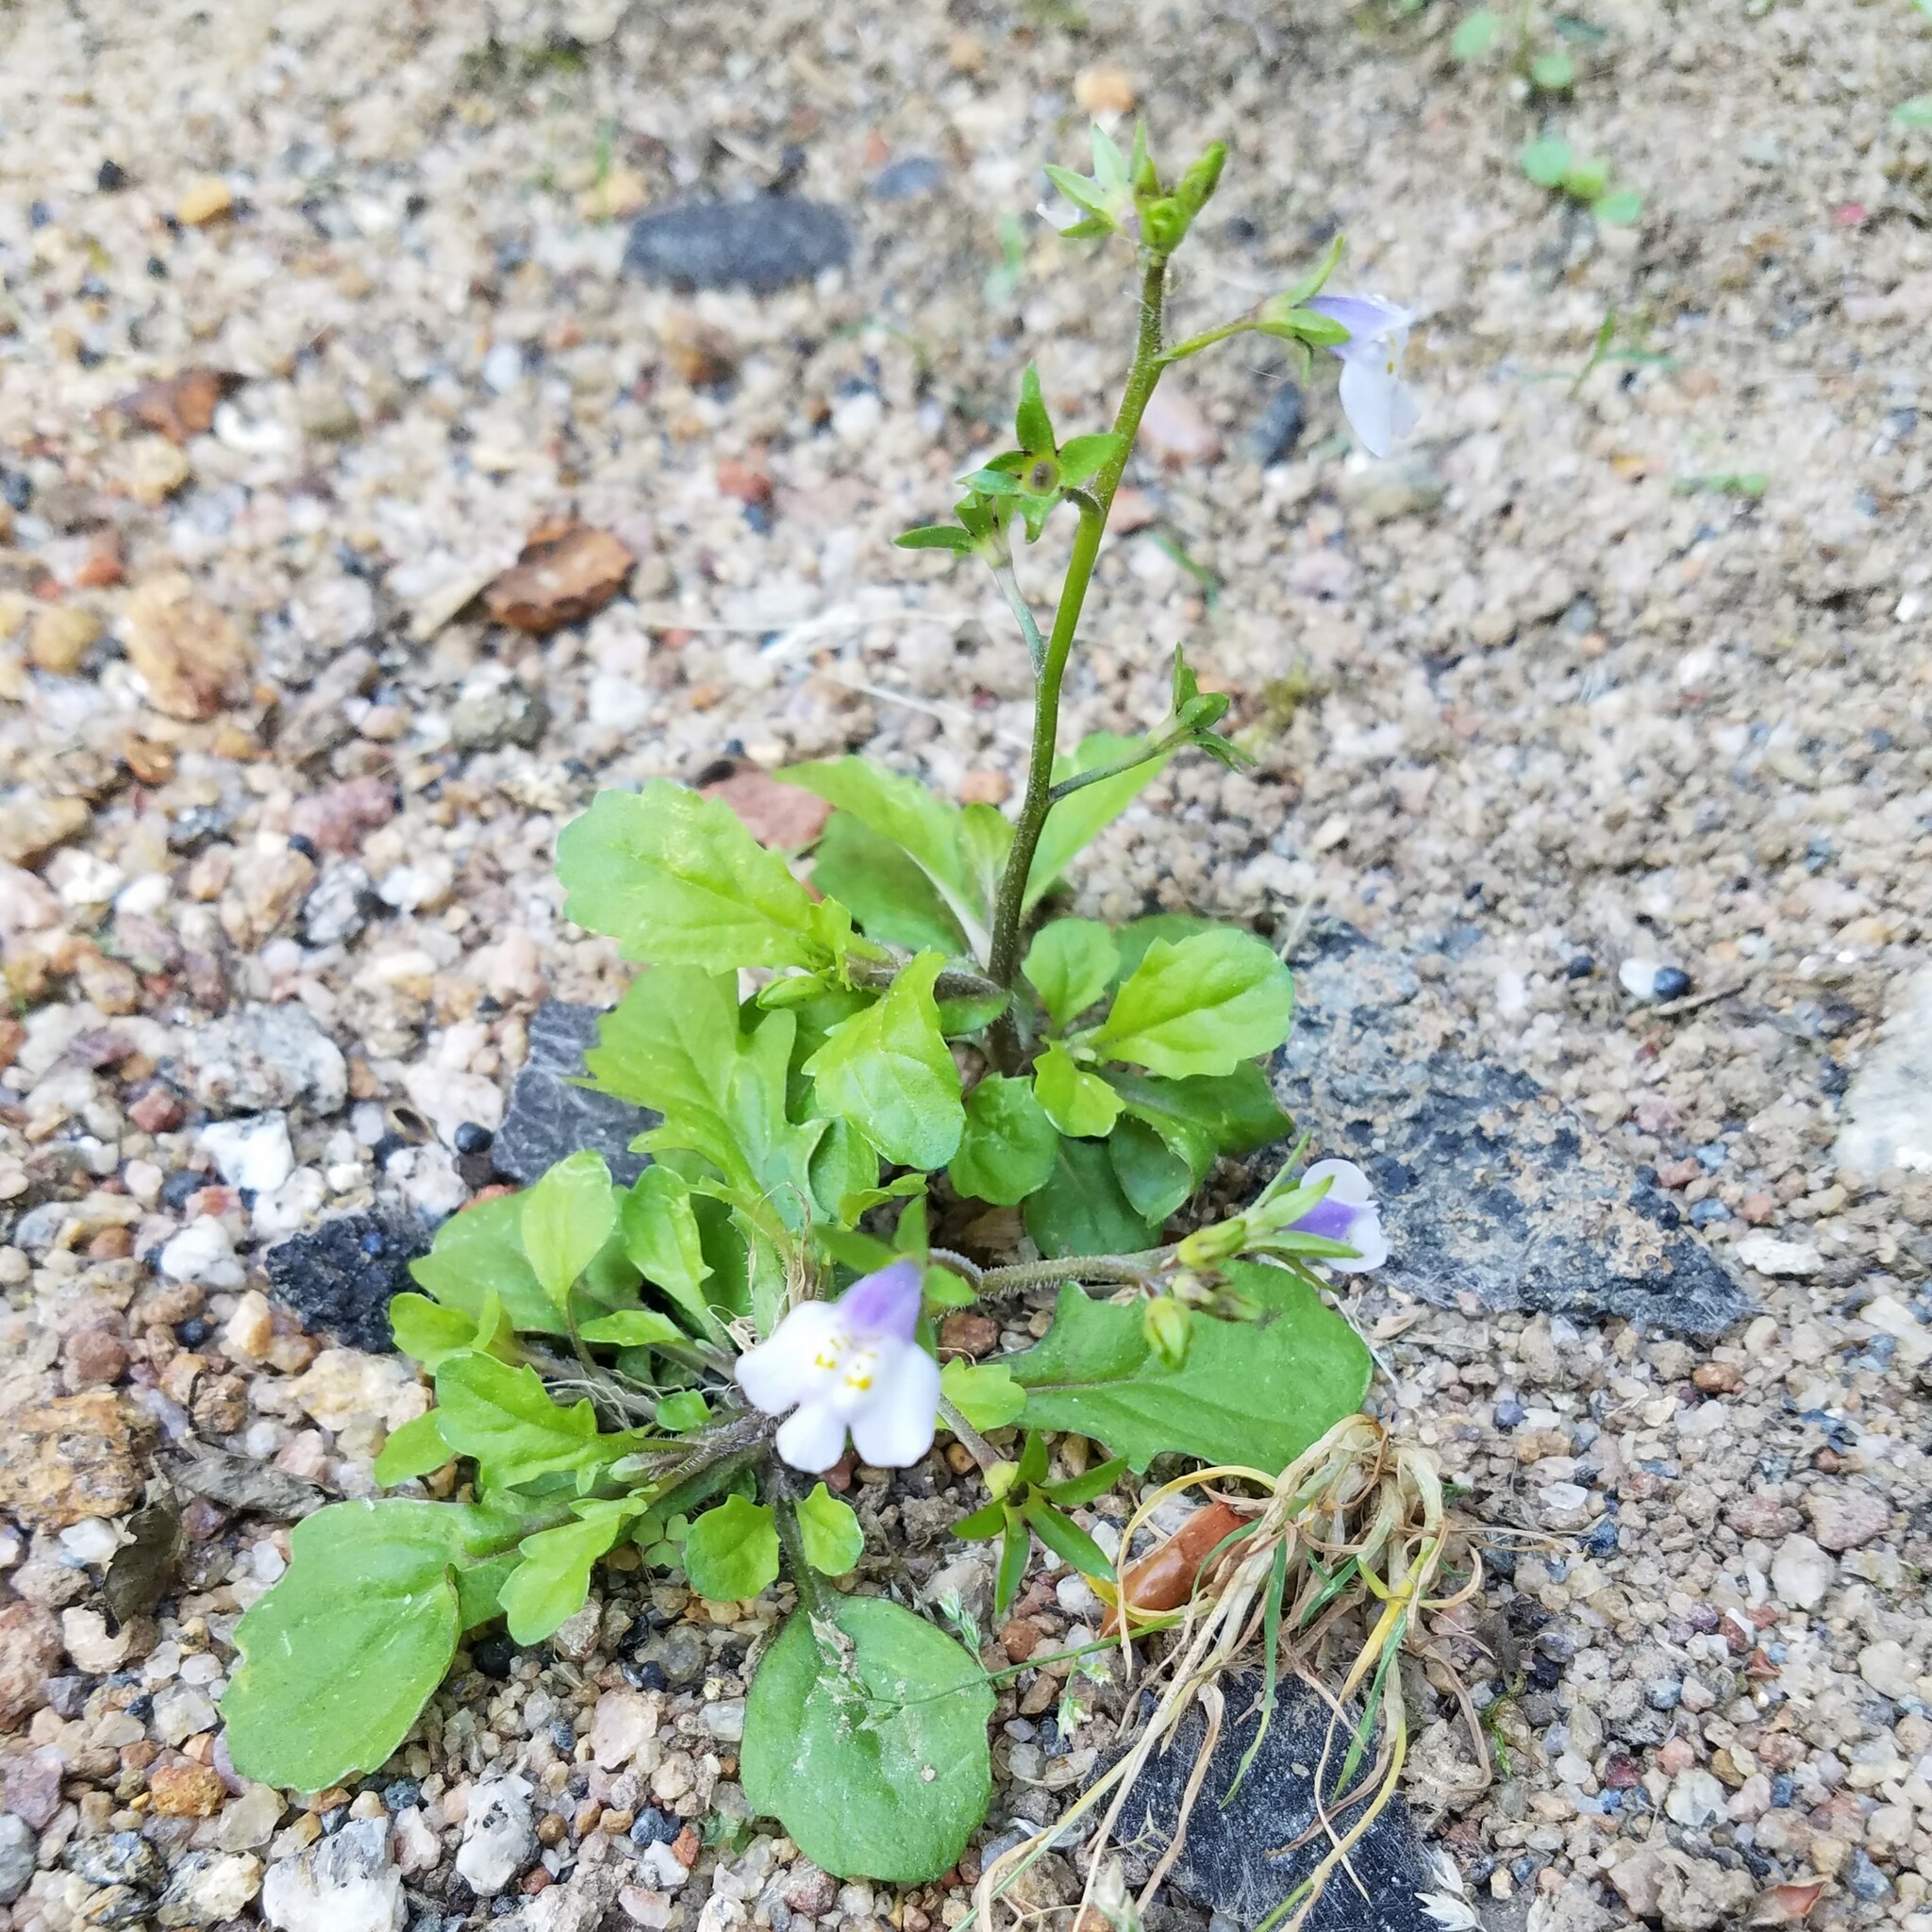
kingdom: Plantae
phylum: Tracheophyta
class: Magnoliopsida
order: Lamiales
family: Mazaceae
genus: Mazus
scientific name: Mazus pumilus
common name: Japanese mazus
